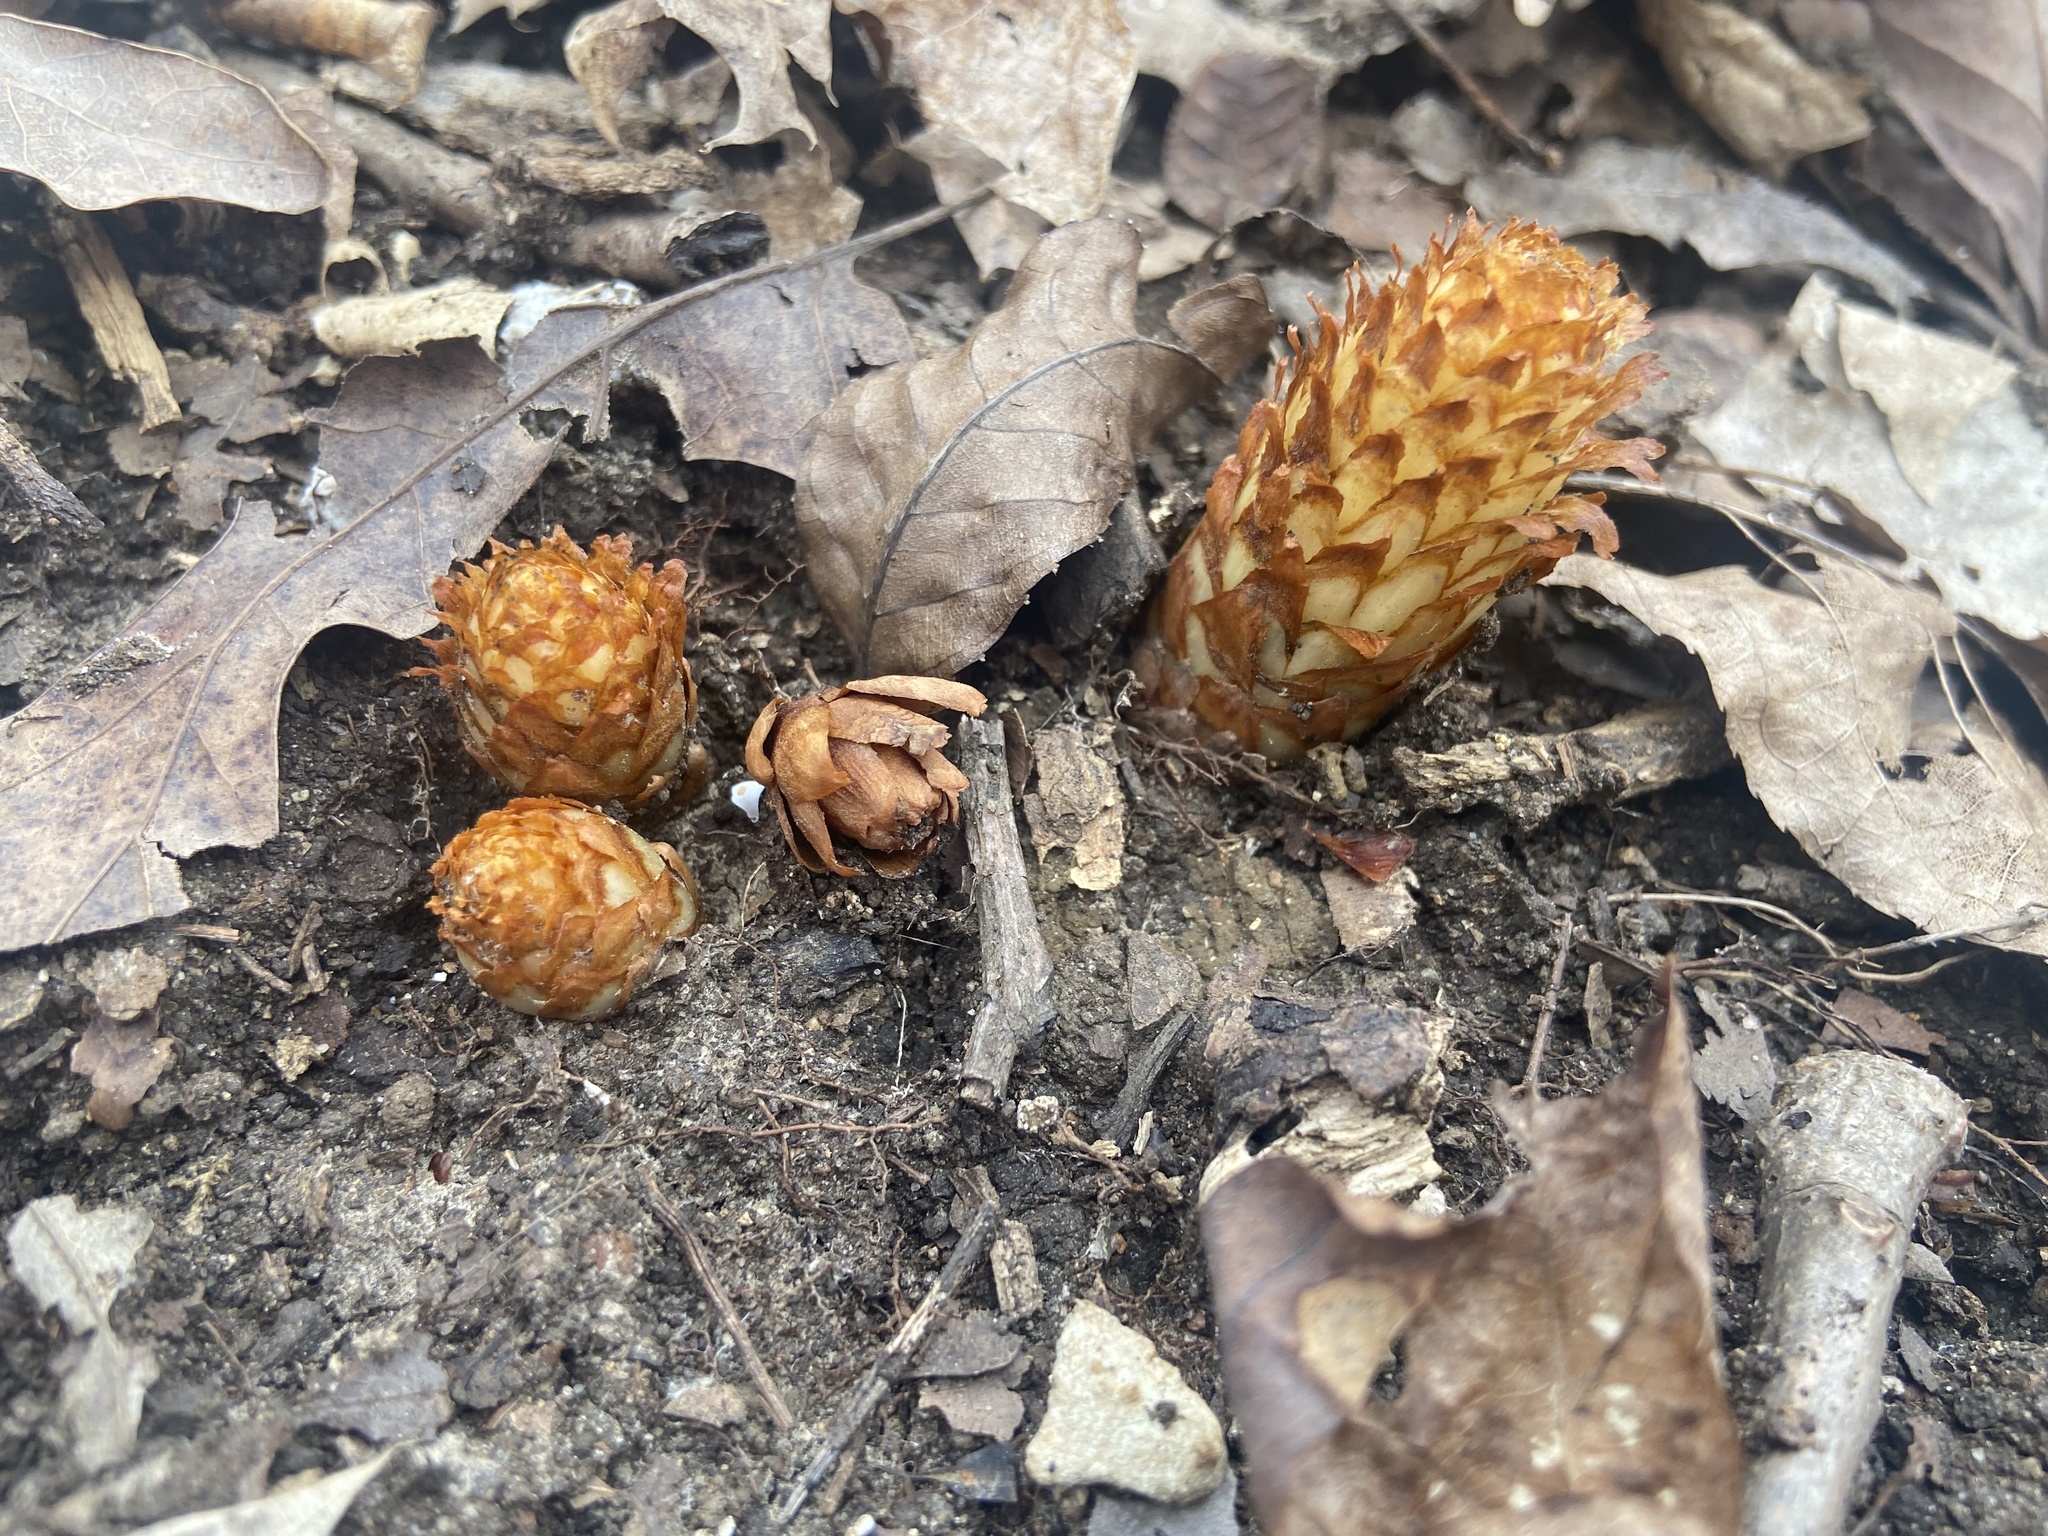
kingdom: Plantae
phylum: Tracheophyta
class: Magnoliopsida
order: Lamiales
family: Orobanchaceae
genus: Conopholis
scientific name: Conopholis americana
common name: American cancer-root
